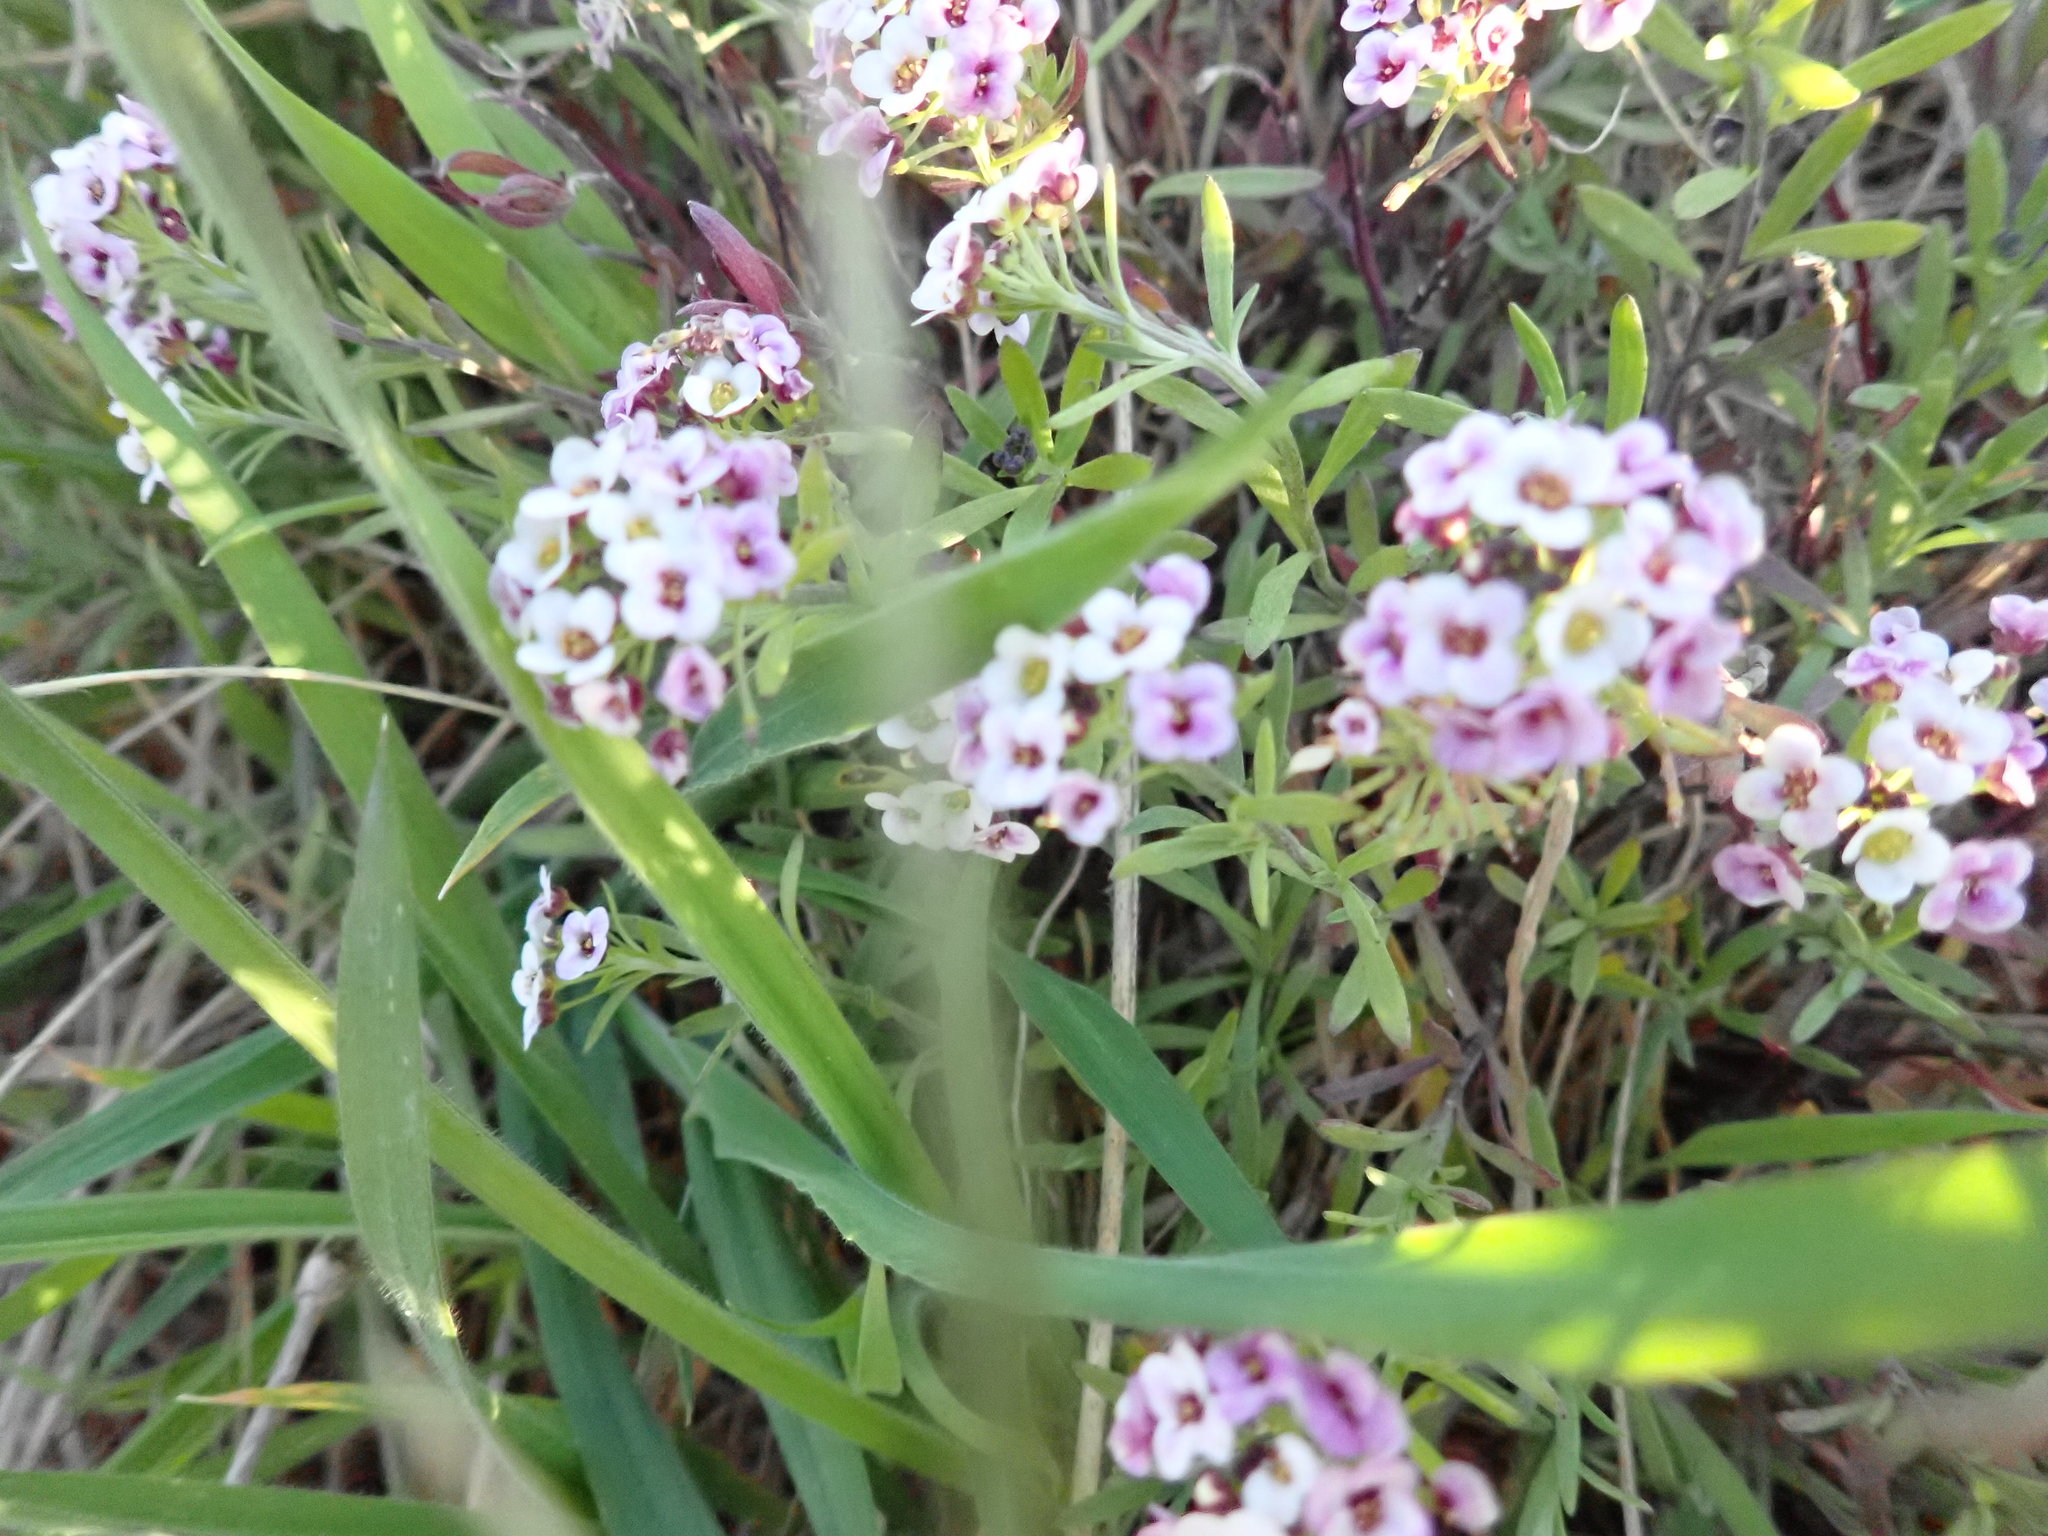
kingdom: Plantae
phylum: Tracheophyta
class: Magnoliopsida
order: Brassicales
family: Brassicaceae
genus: Lobularia
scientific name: Lobularia maritima
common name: Sweet alison
